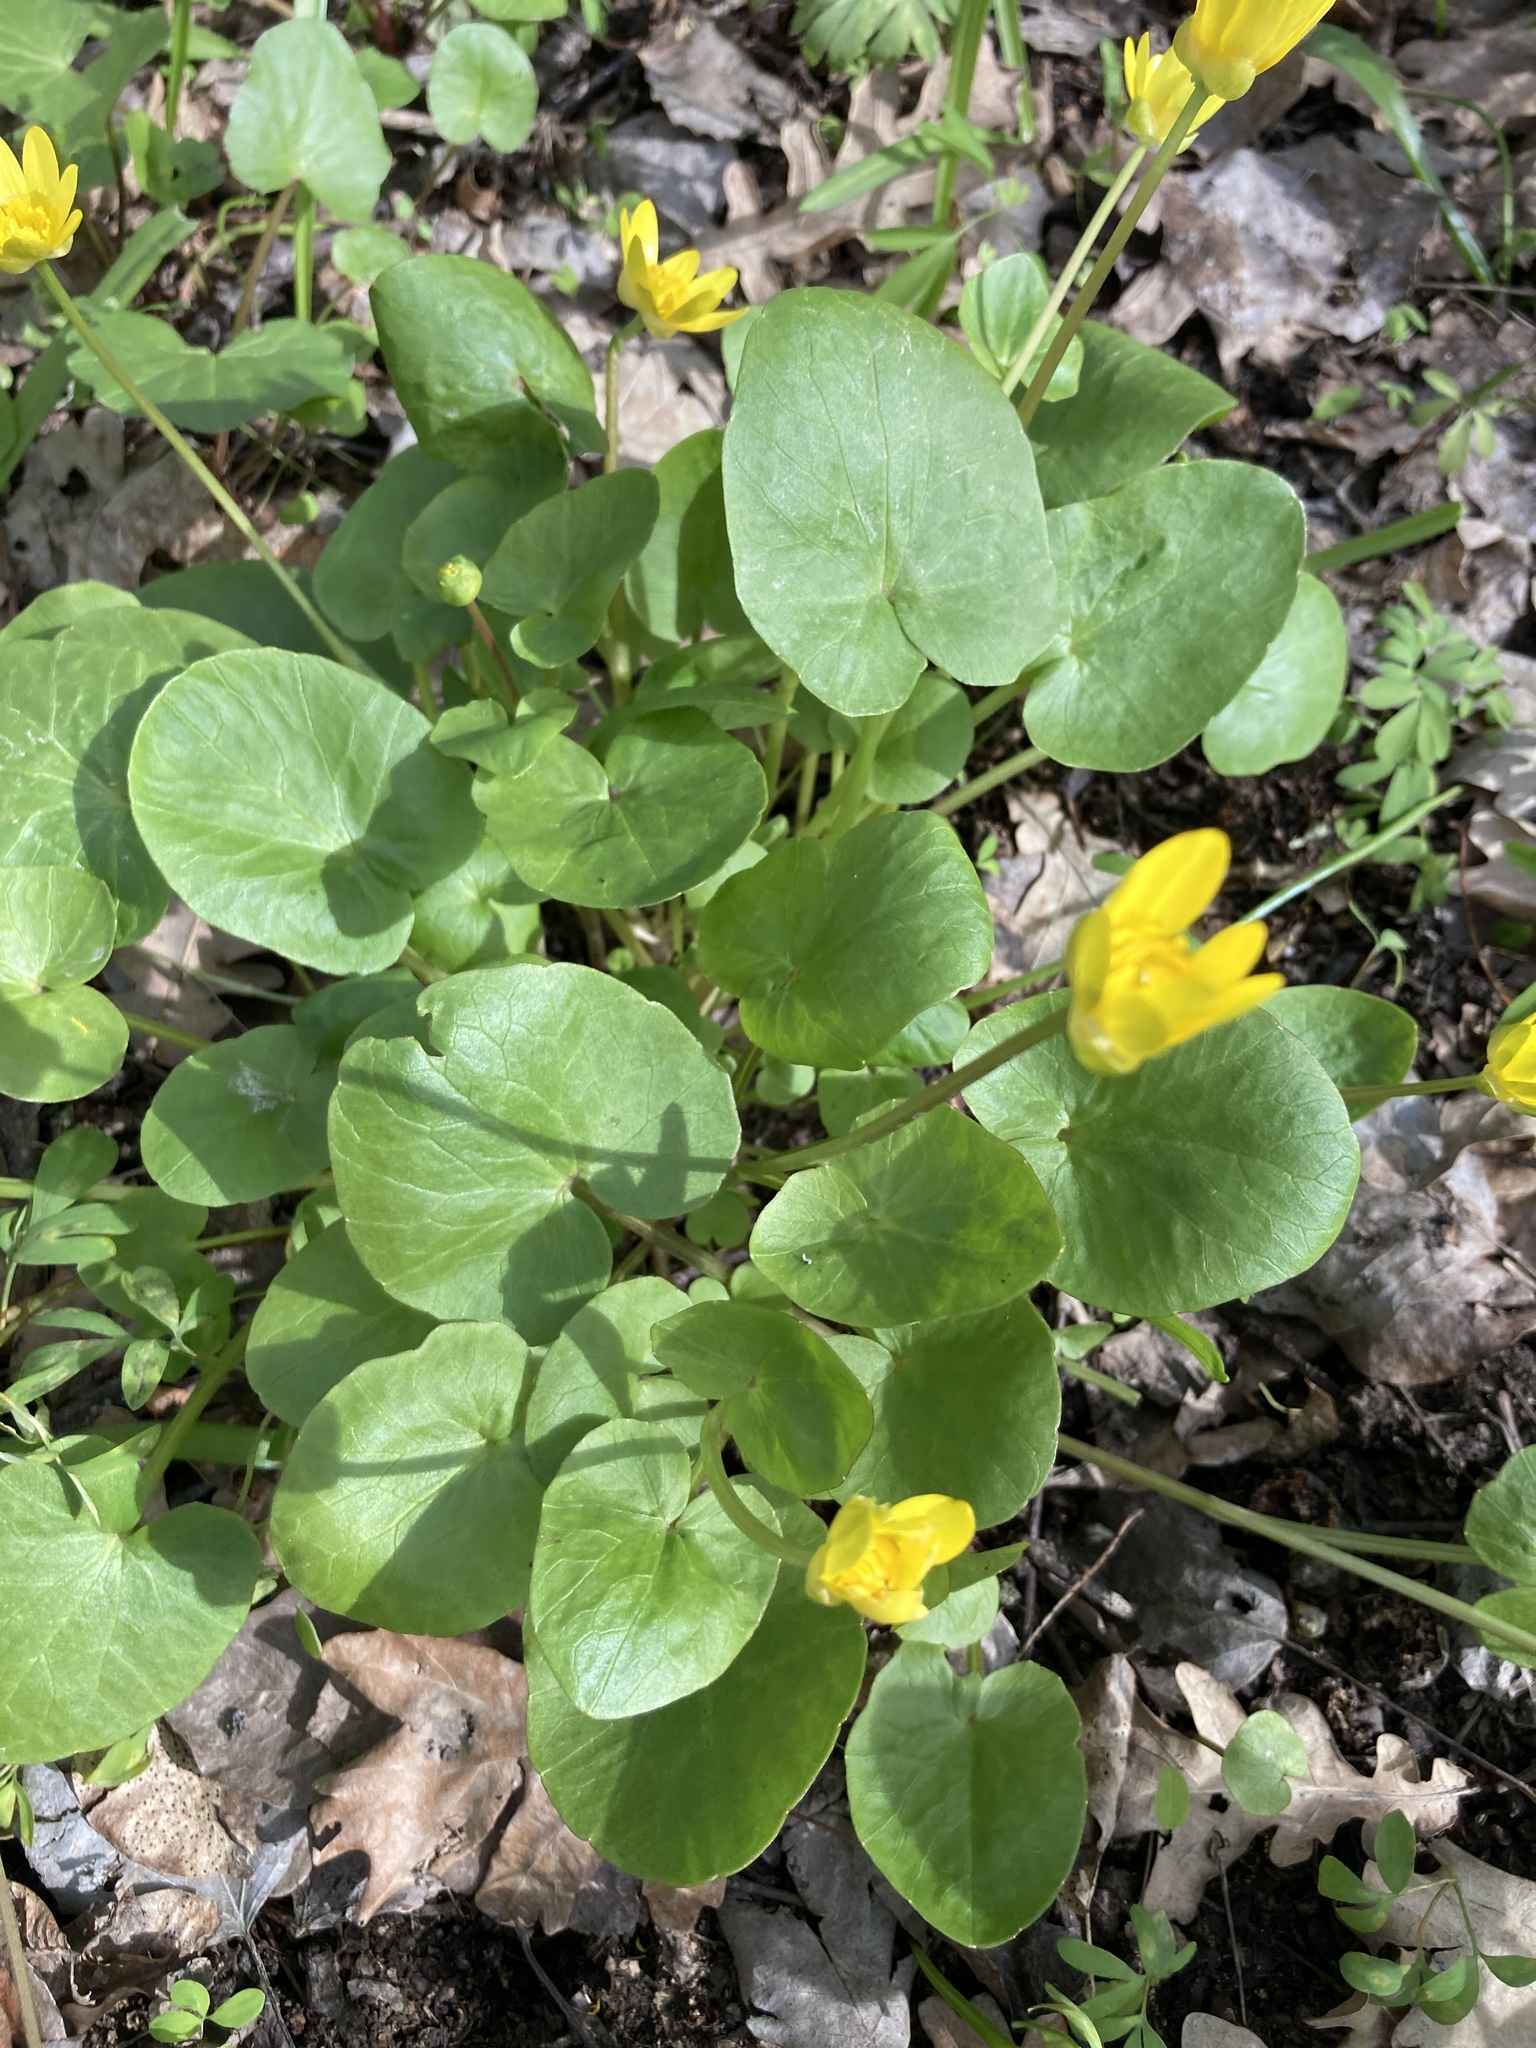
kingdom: Plantae
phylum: Tracheophyta
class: Magnoliopsida
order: Ranunculales
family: Ranunculaceae
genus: Ficaria
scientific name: Ficaria verna
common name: Lesser celandine
